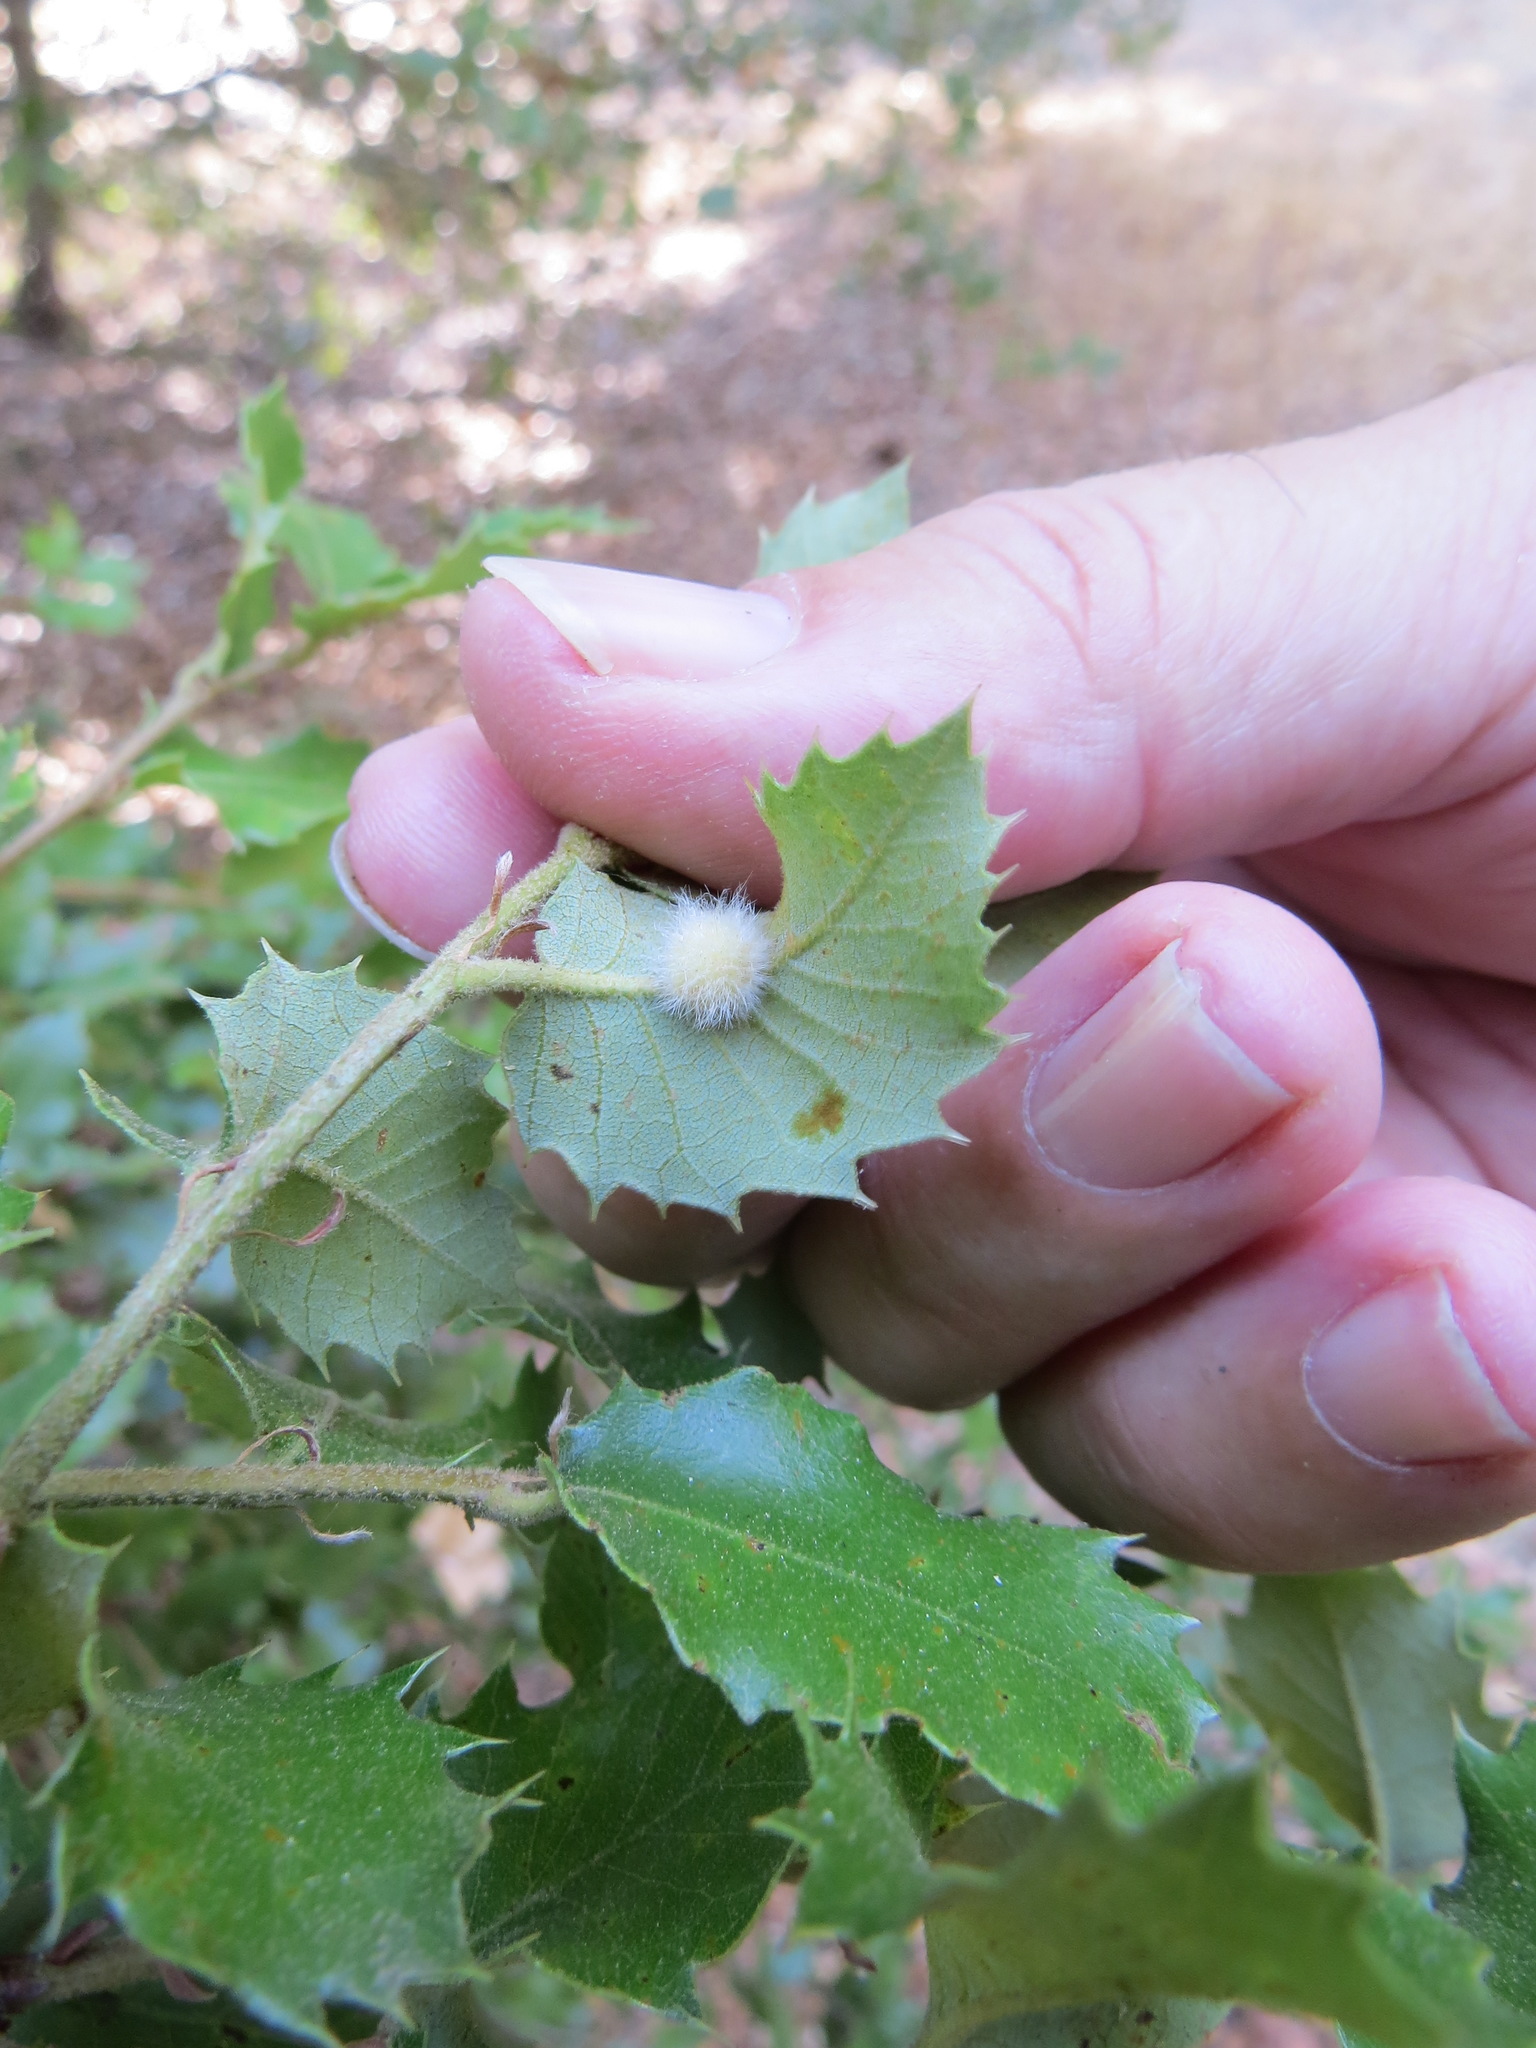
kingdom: Animalia
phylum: Arthropoda
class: Insecta
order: Hymenoptera
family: Cynipidae
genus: Disholandricus
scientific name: Disholandricus
